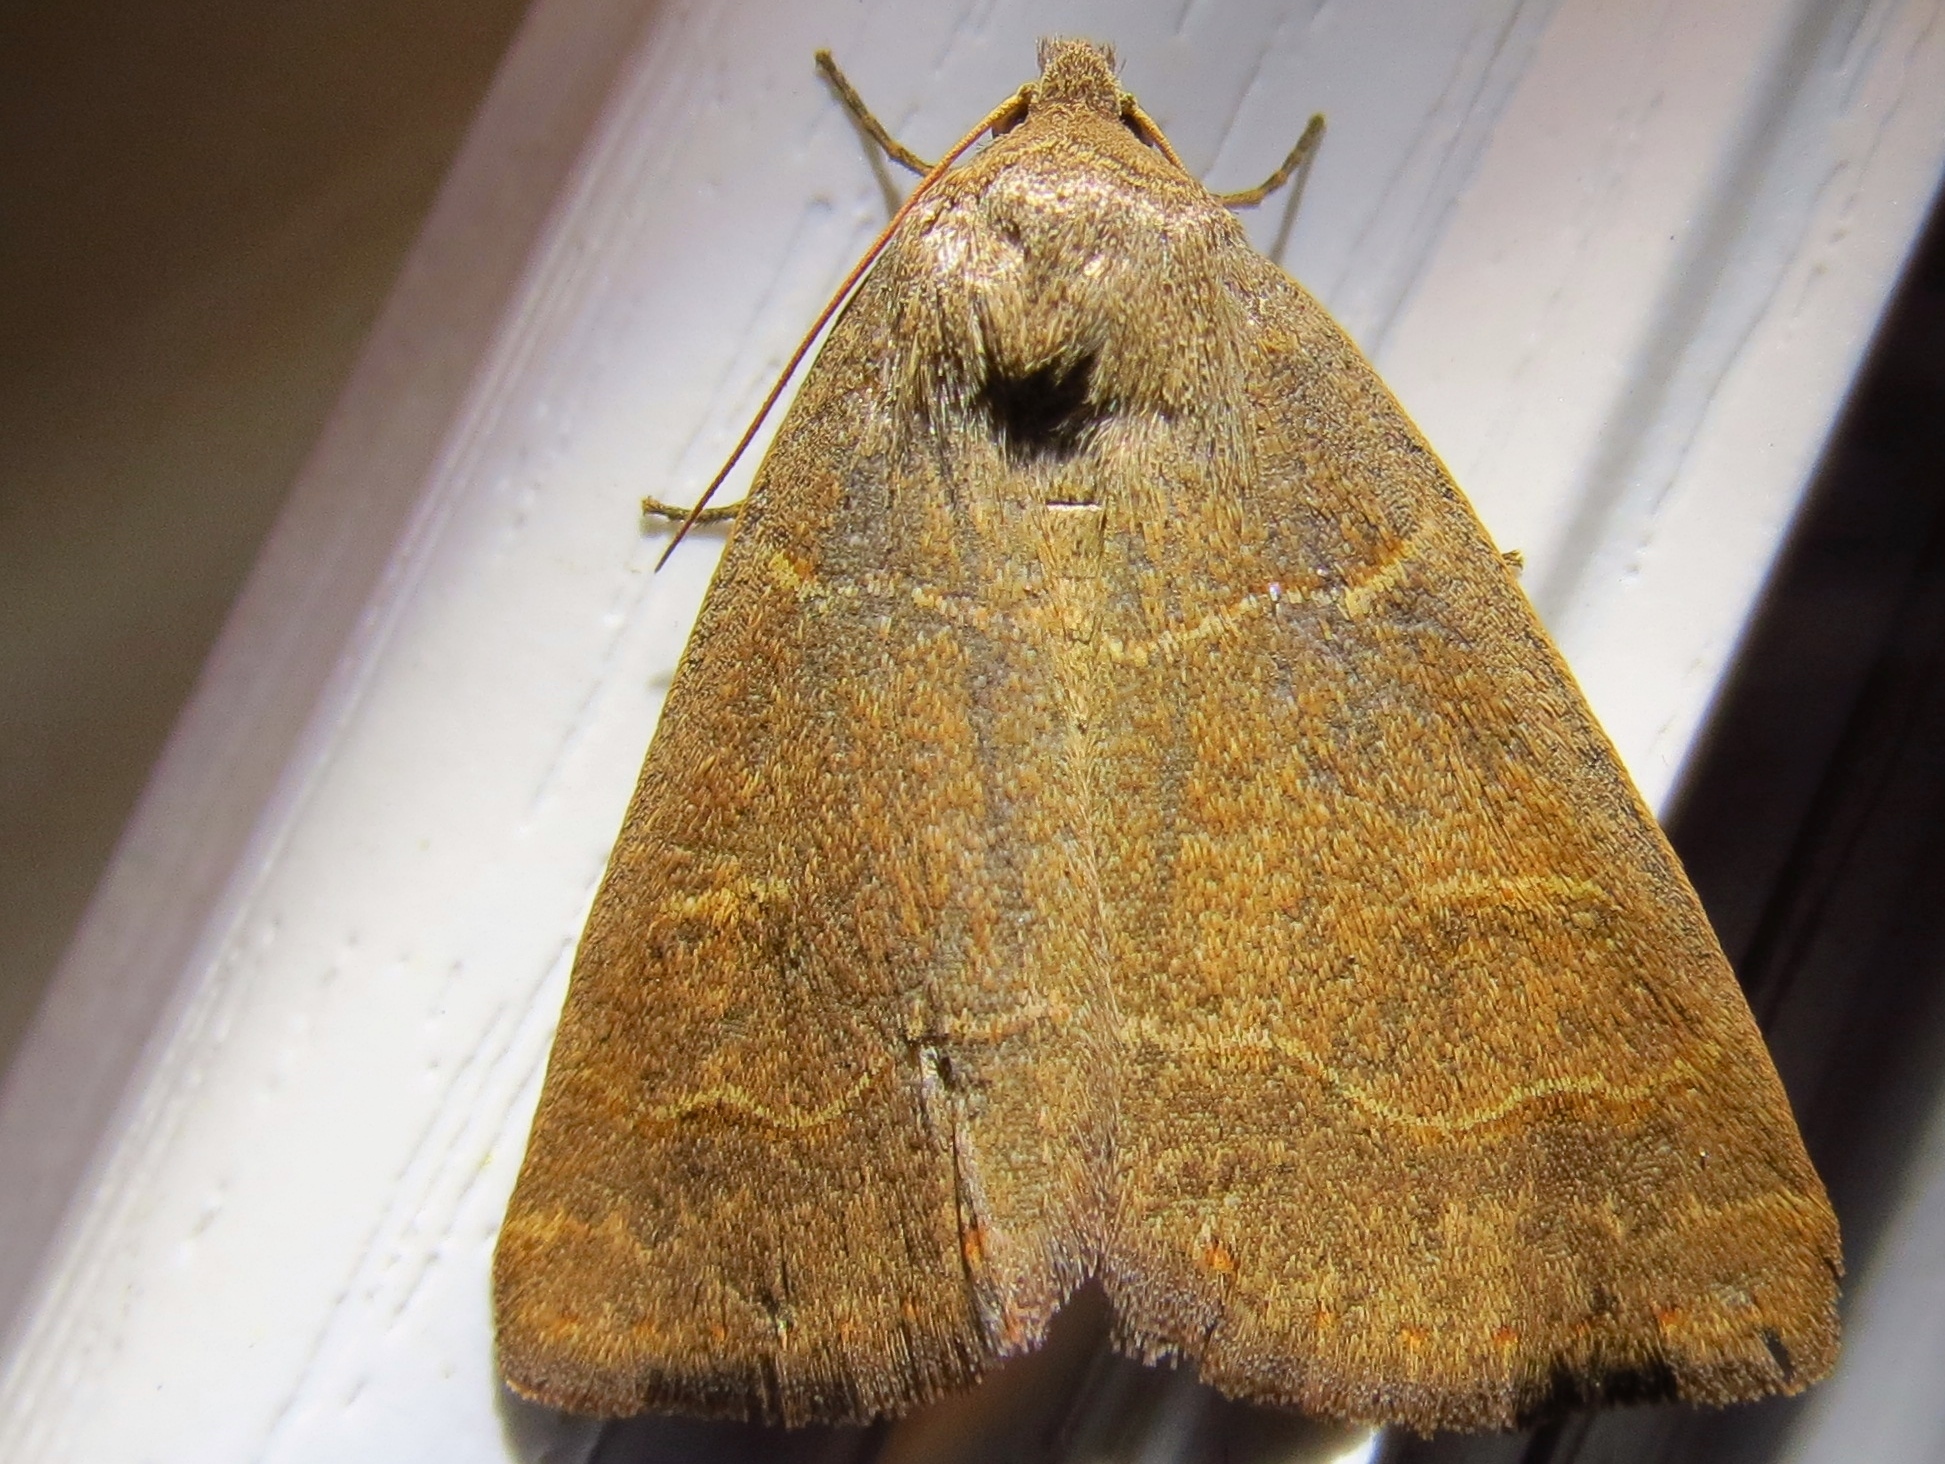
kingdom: Animalia
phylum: Arthropoda
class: Insecta
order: Lepidoptera
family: Erebidae
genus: Phoberia
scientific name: Phoberia atomaris
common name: Common oak moth
